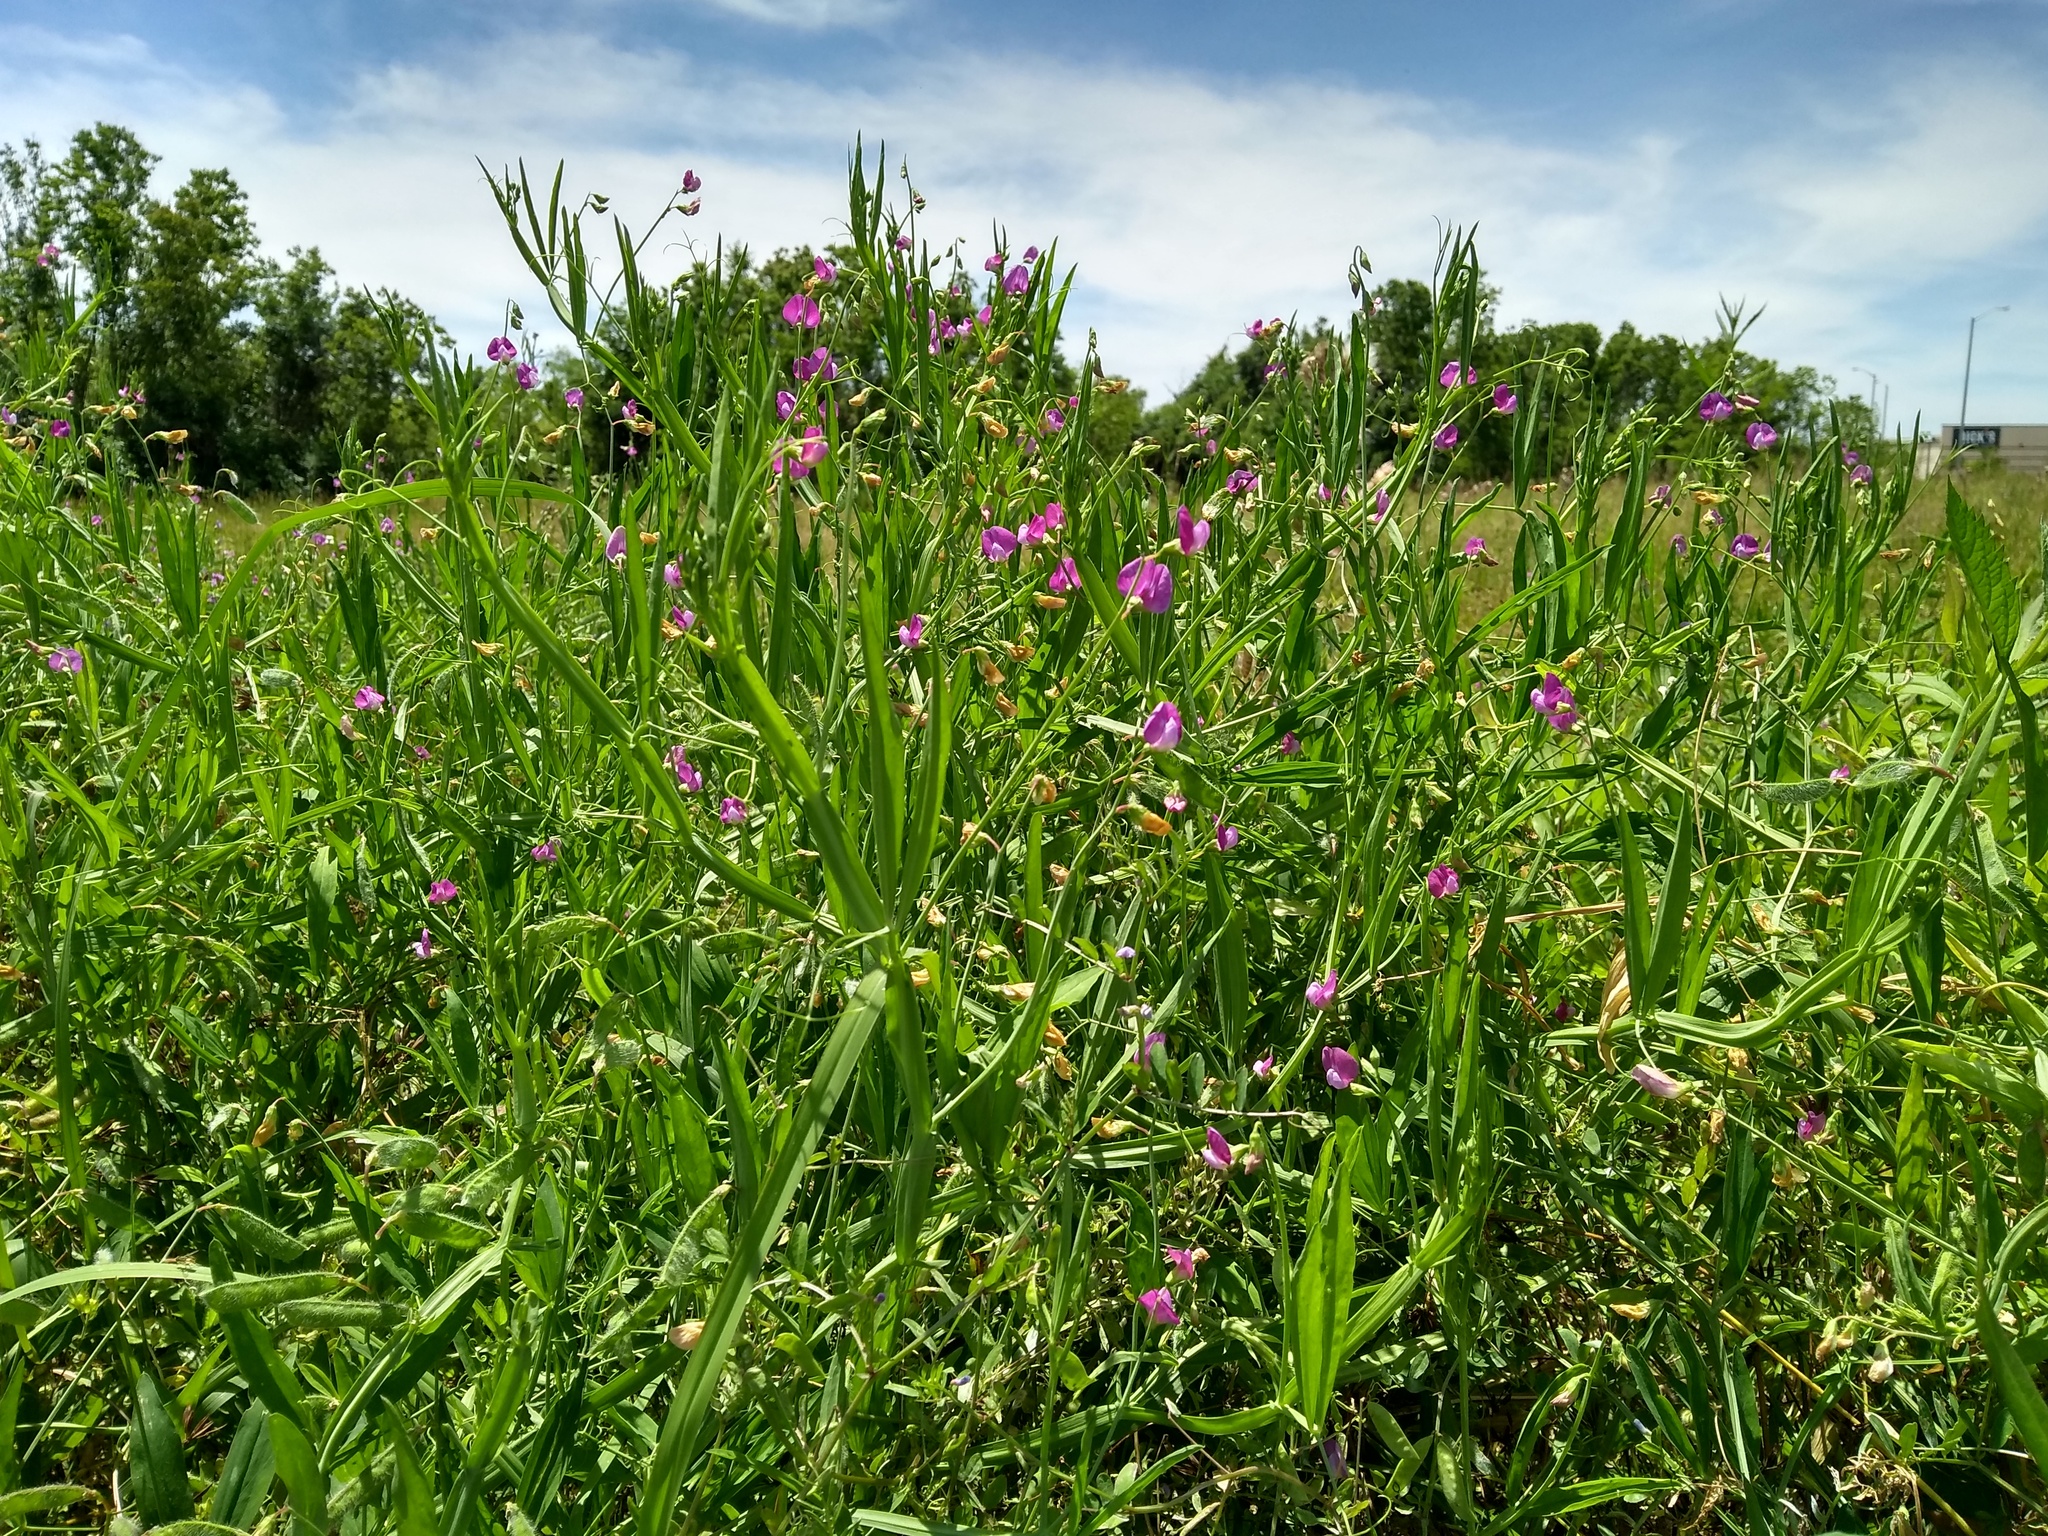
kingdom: Plantae
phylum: Tracheophyta
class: Magnoliopsida
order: Fabales
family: Fabaceae
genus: Lathyrus
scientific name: Lathyrus hirsutus
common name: Hairy vetchling
